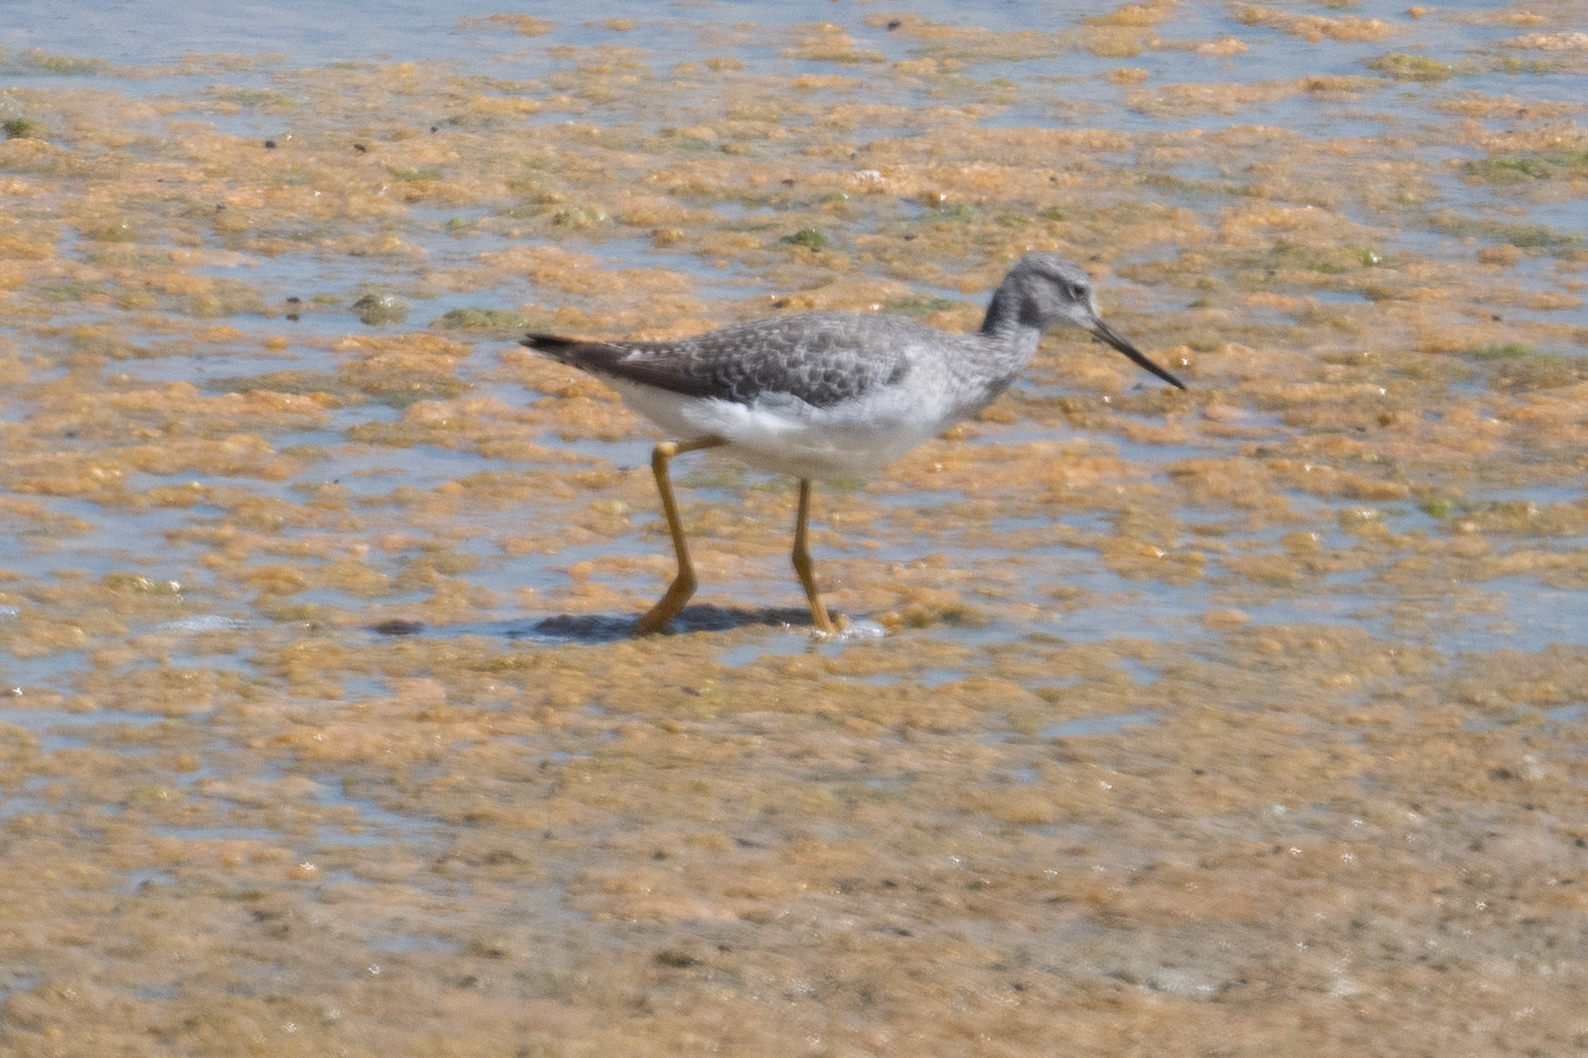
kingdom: Animalia
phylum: Chordata
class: Aves
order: Charadriiformes
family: Scolopacidae
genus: Tringa
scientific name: Tringa melanoleuca
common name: Greater yellowlegs
